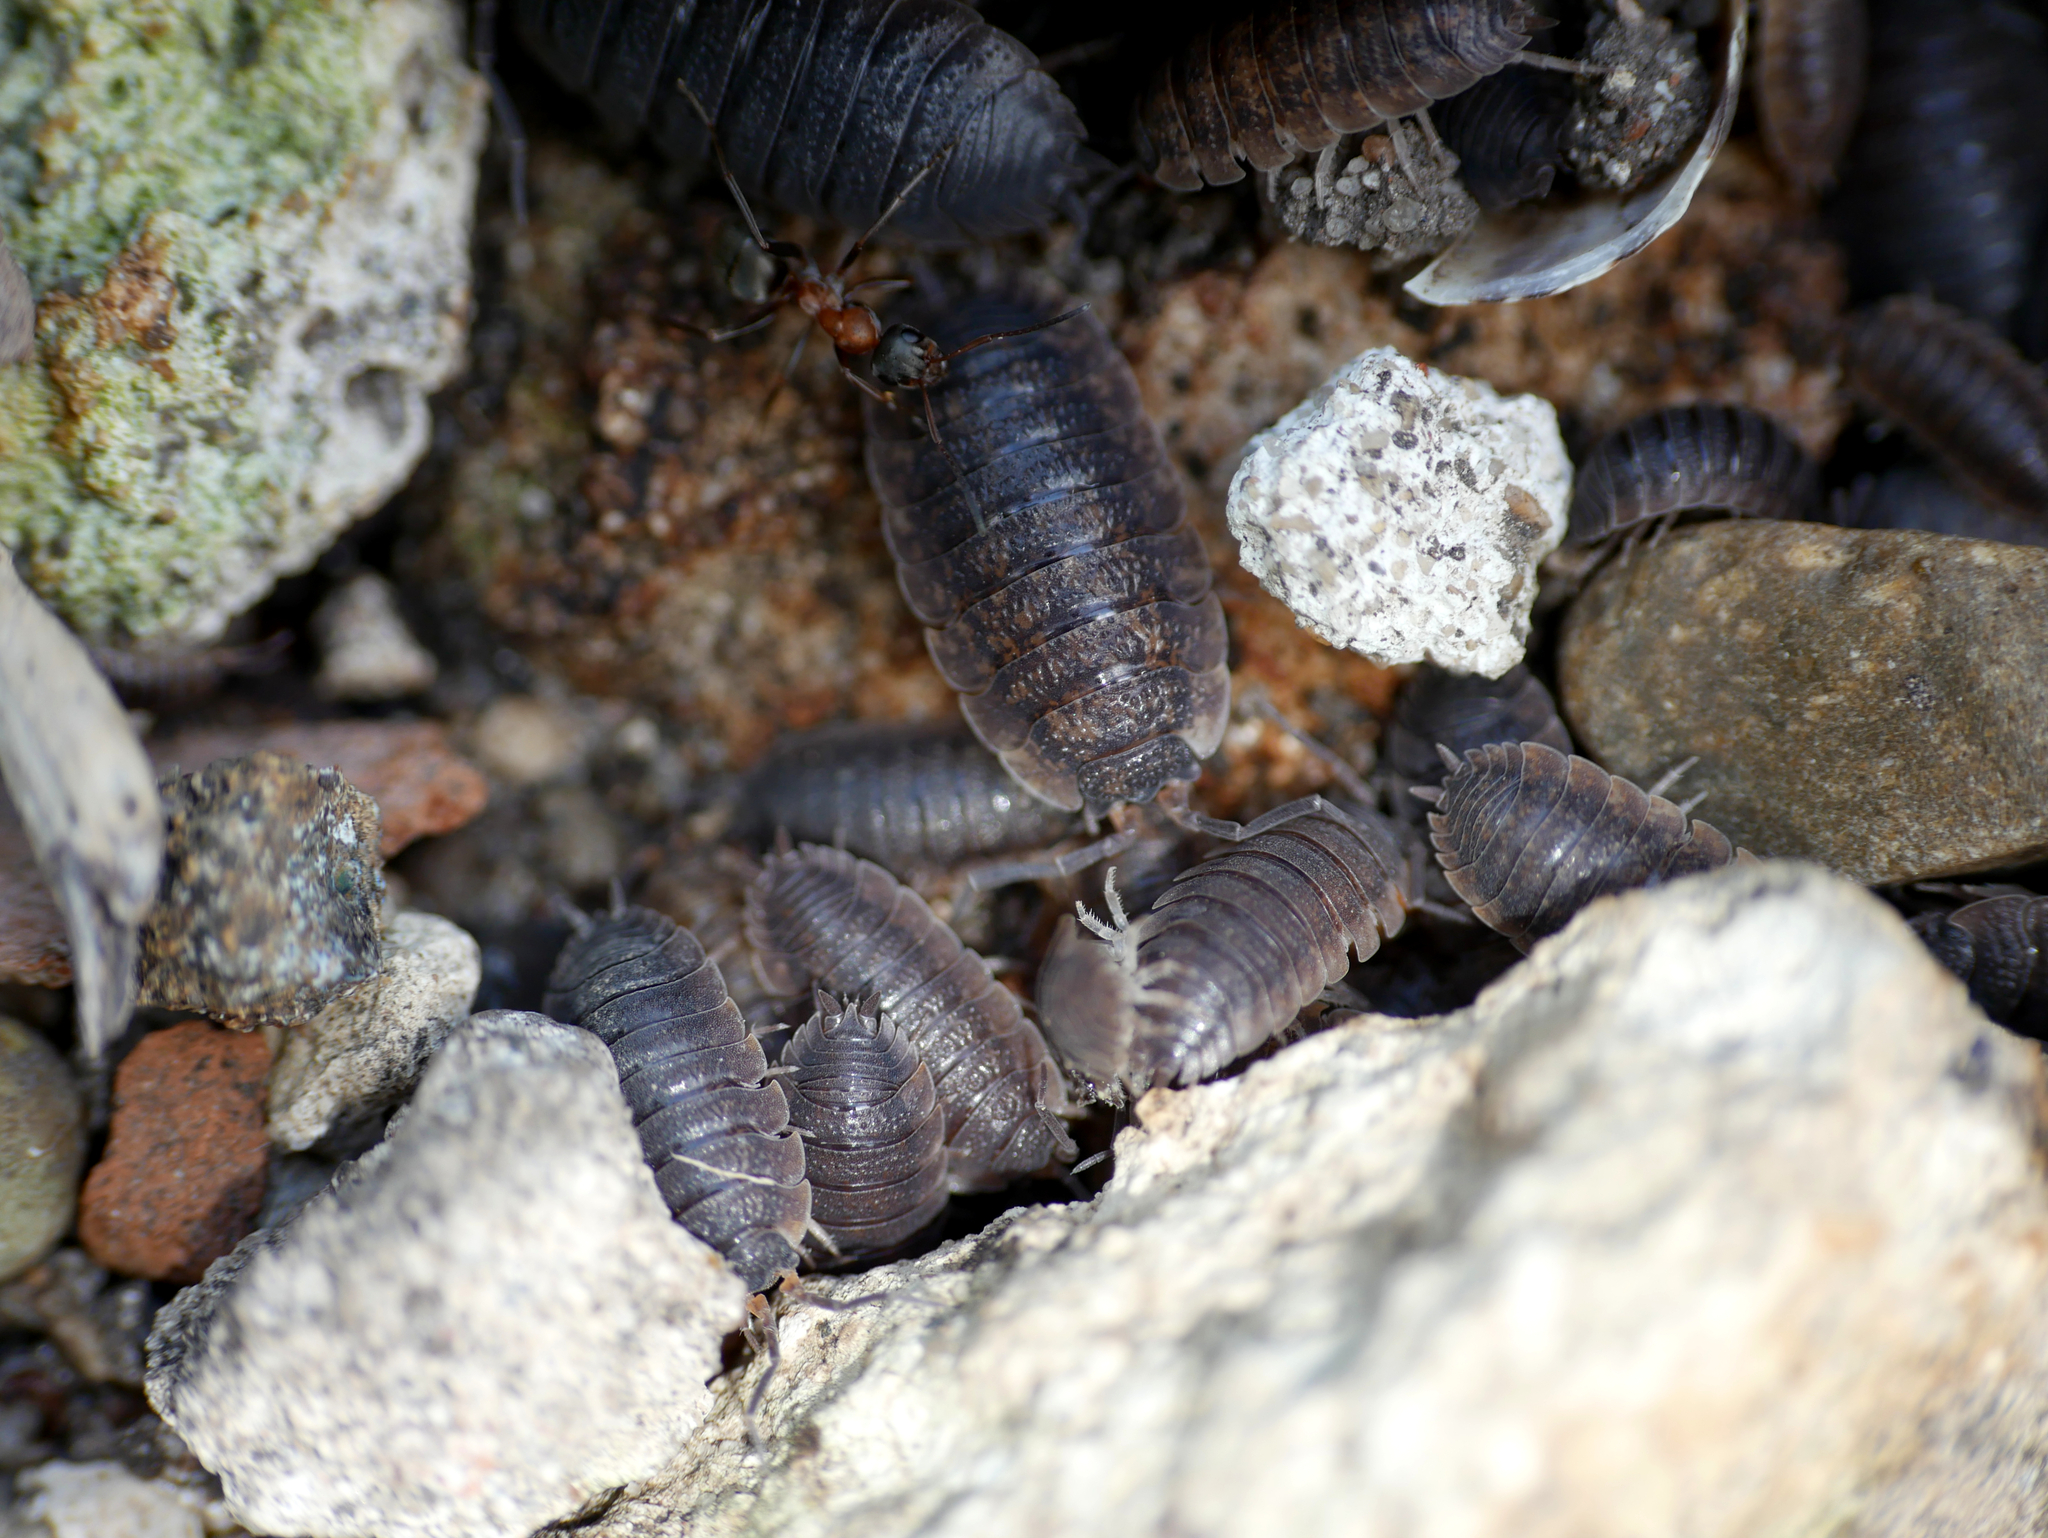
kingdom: Animalia
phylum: Arthropoda
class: Malacostraca
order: Isopoda
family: Porcellionidae
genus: Porcellio
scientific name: Porcellio scaber
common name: Common rough woodlouse
